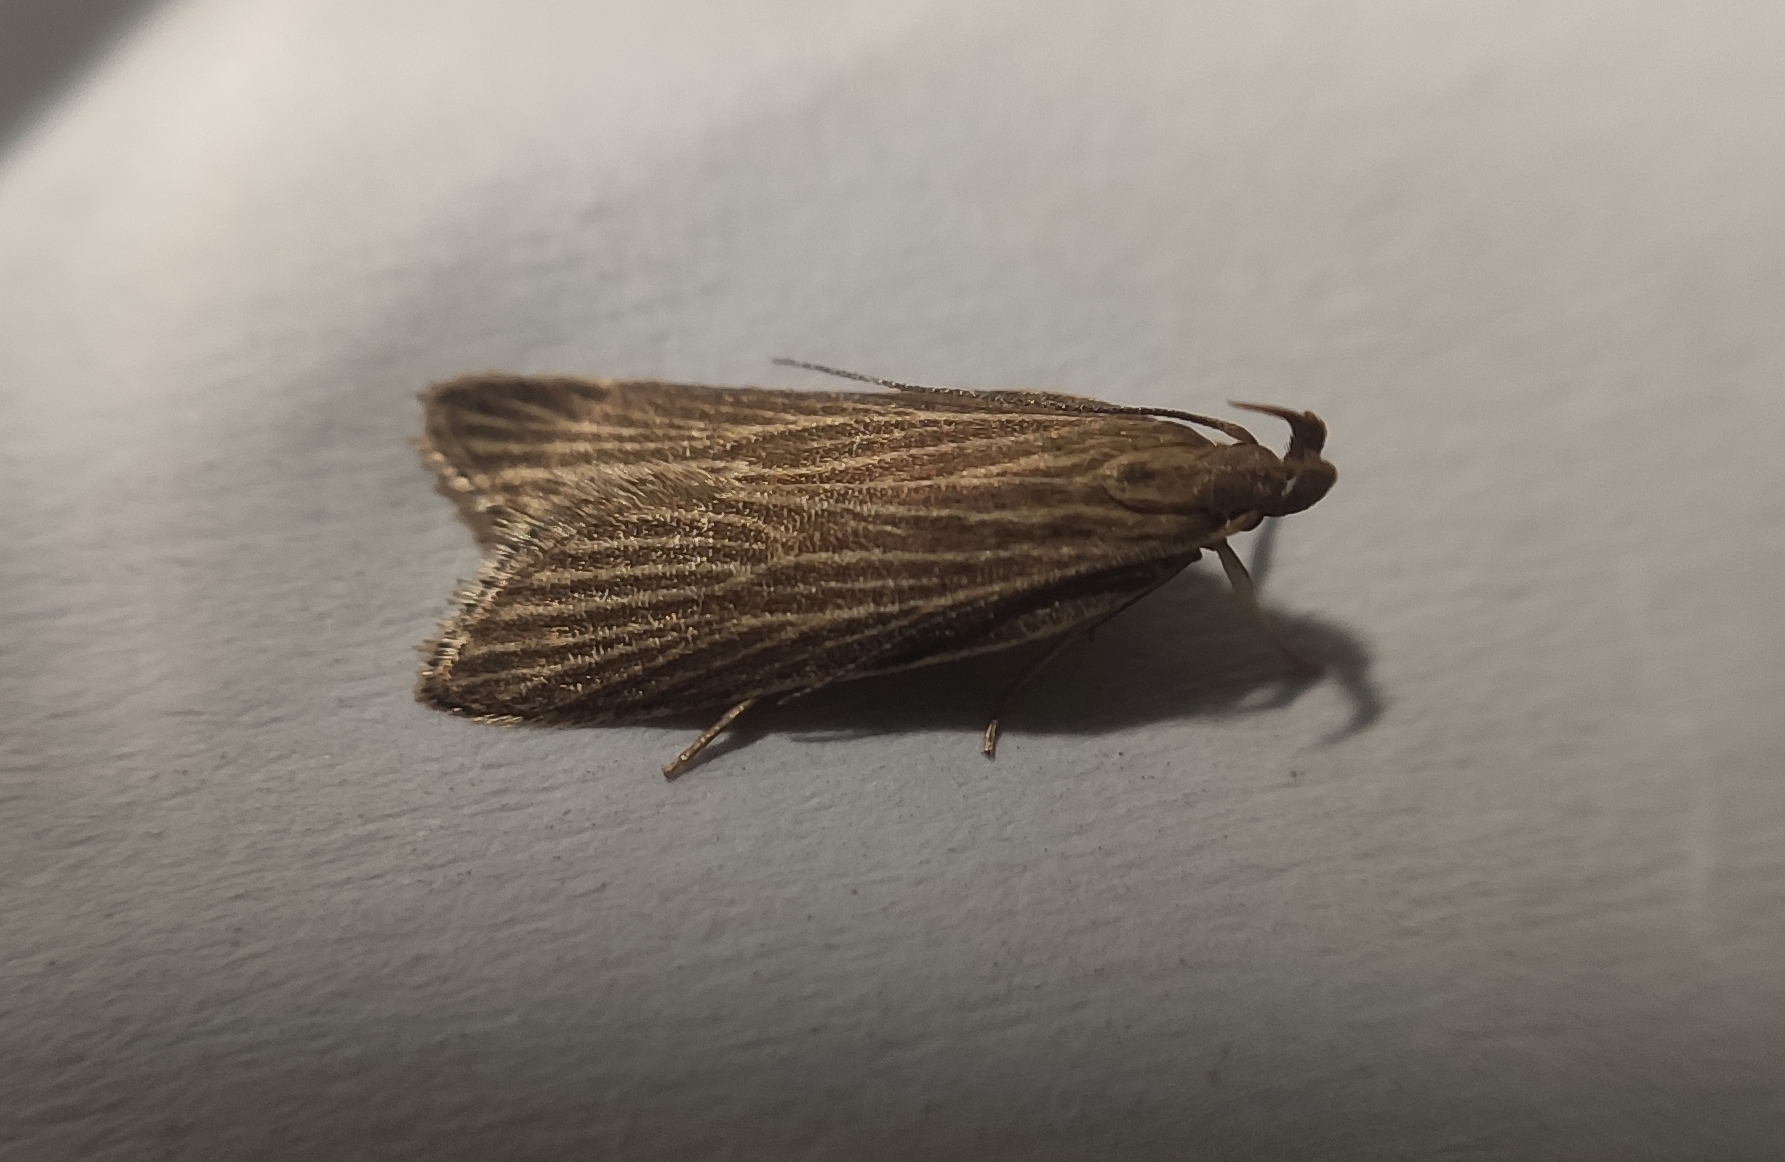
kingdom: Animalia
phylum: Arthropoda
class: Insecta
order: Lepidoptera
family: Gelechiidae
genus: Helcystogramma
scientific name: Helcystogramma albinervis
